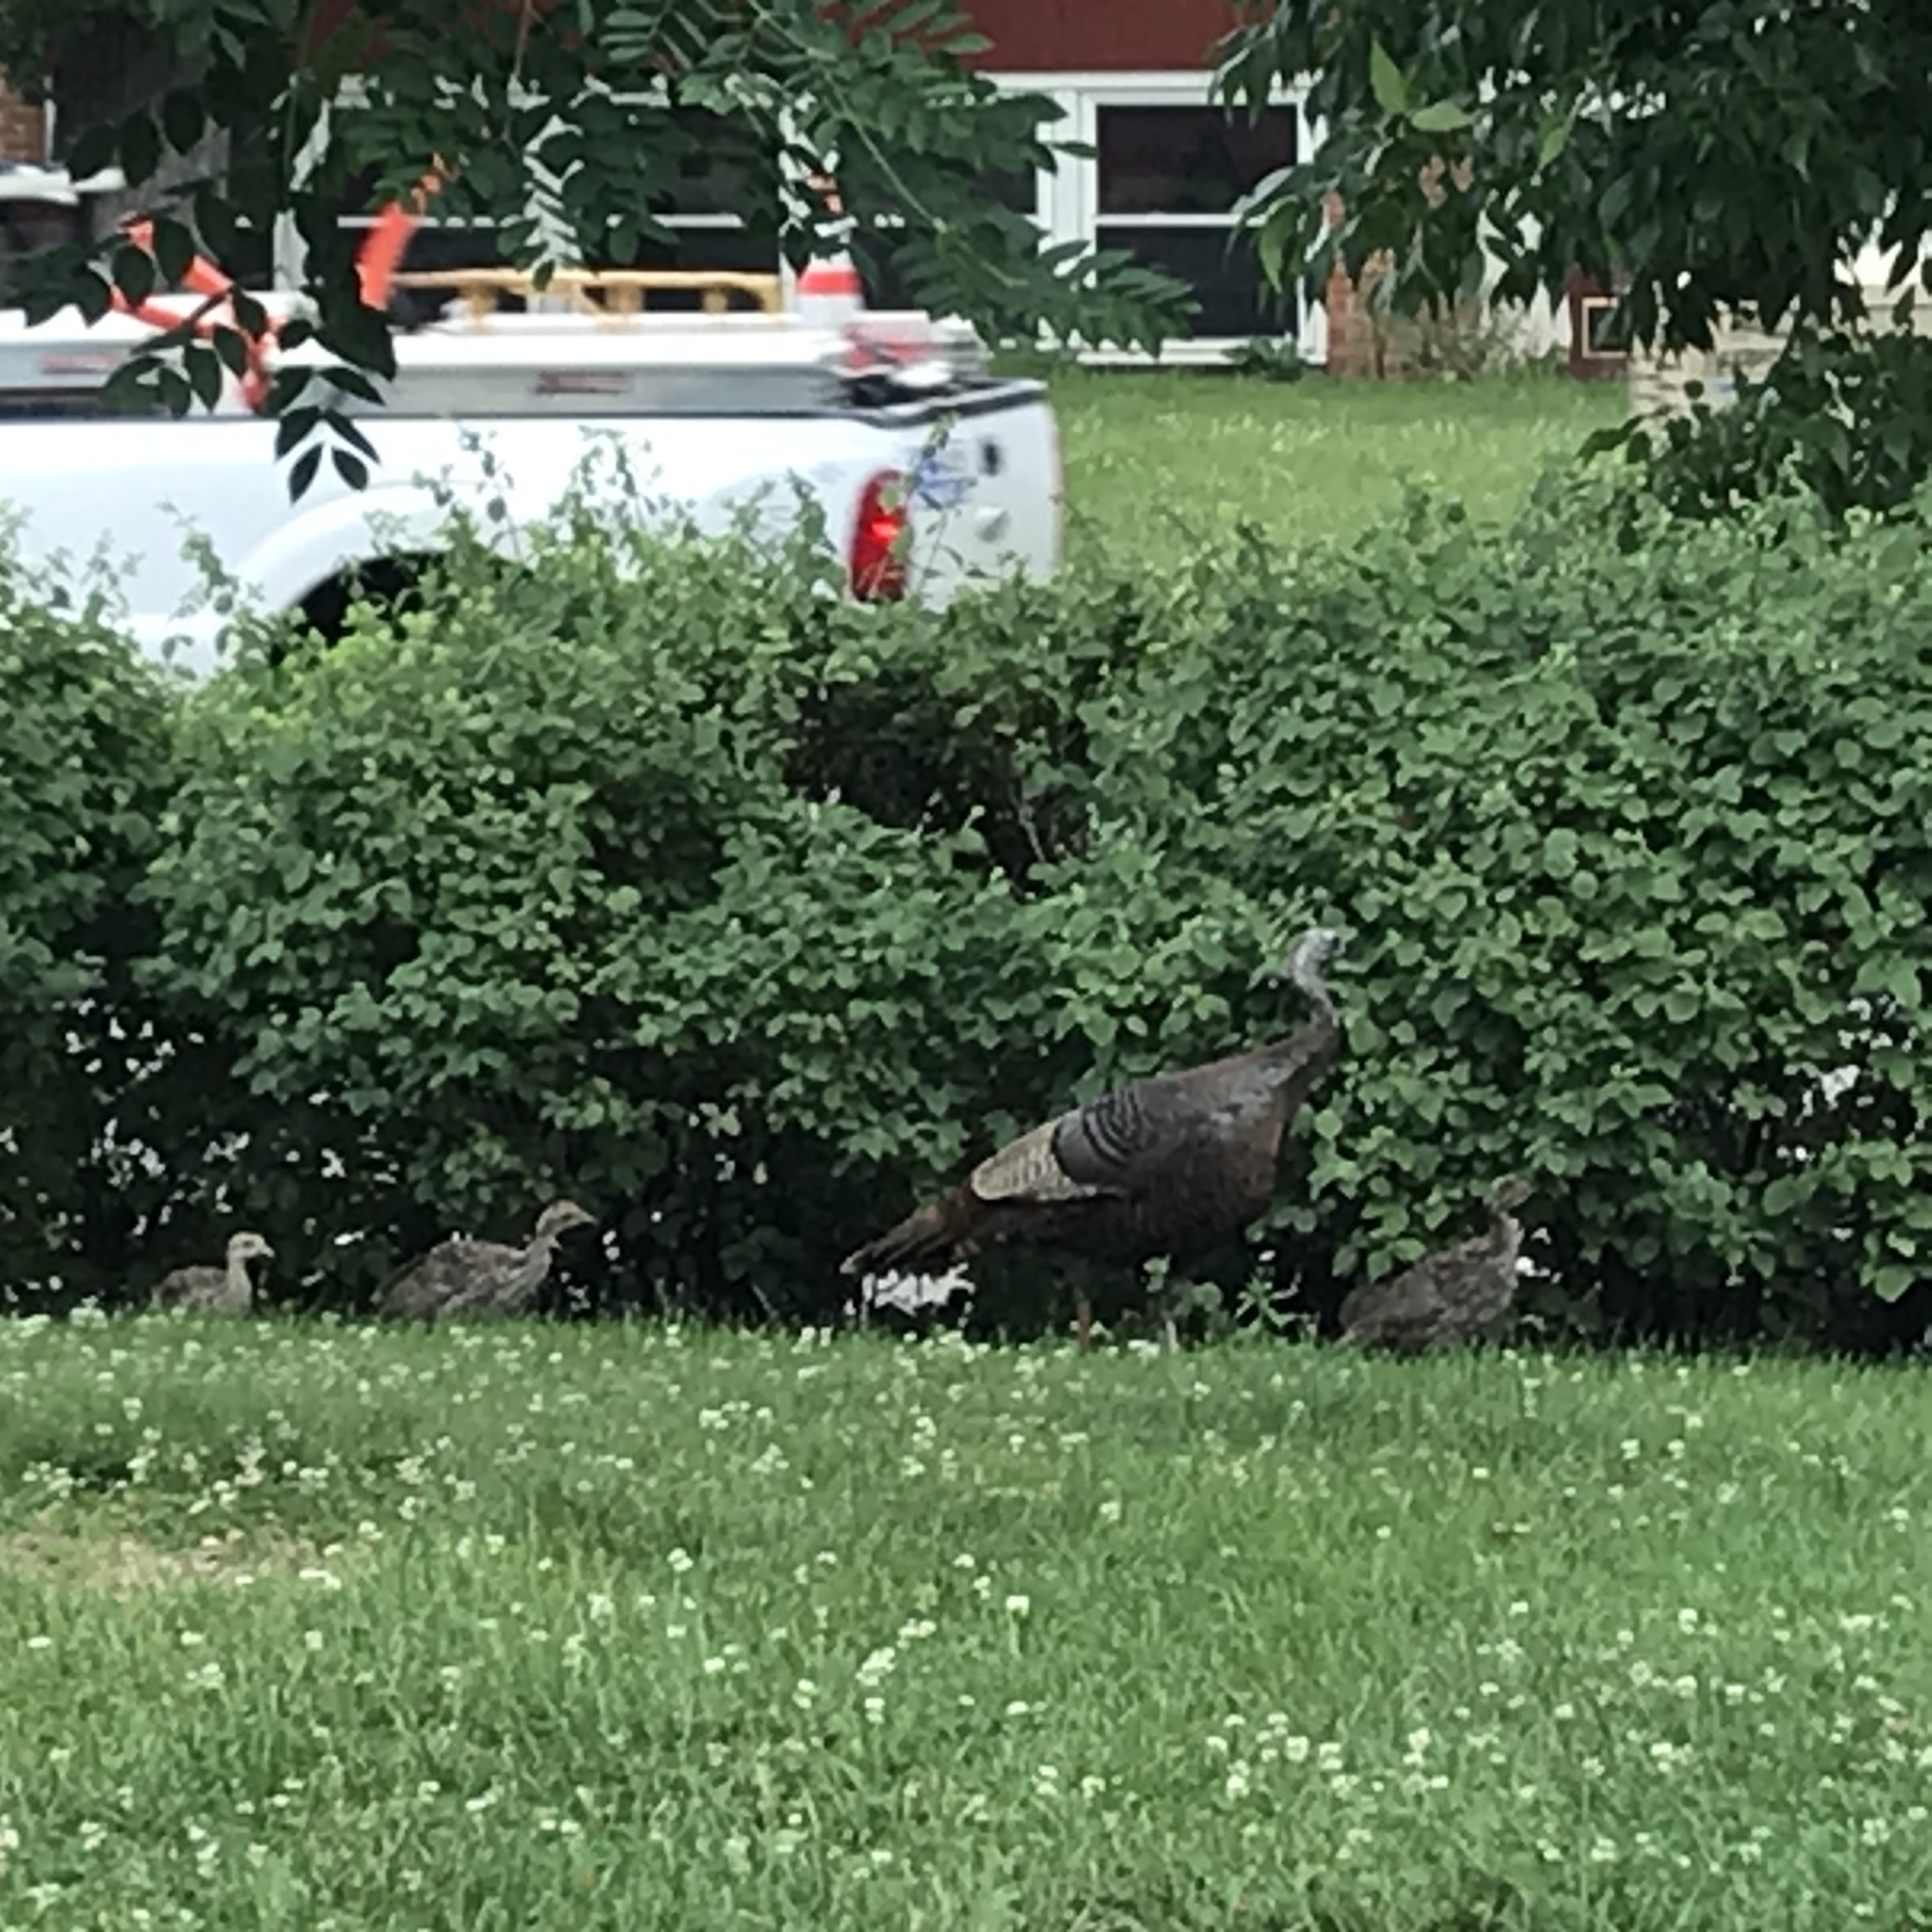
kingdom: Animalia
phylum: Chordata
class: Aves
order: Galliformes
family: Phasianidae
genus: Meleagris
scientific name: Meleagris gallopavo
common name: Wild turkey
